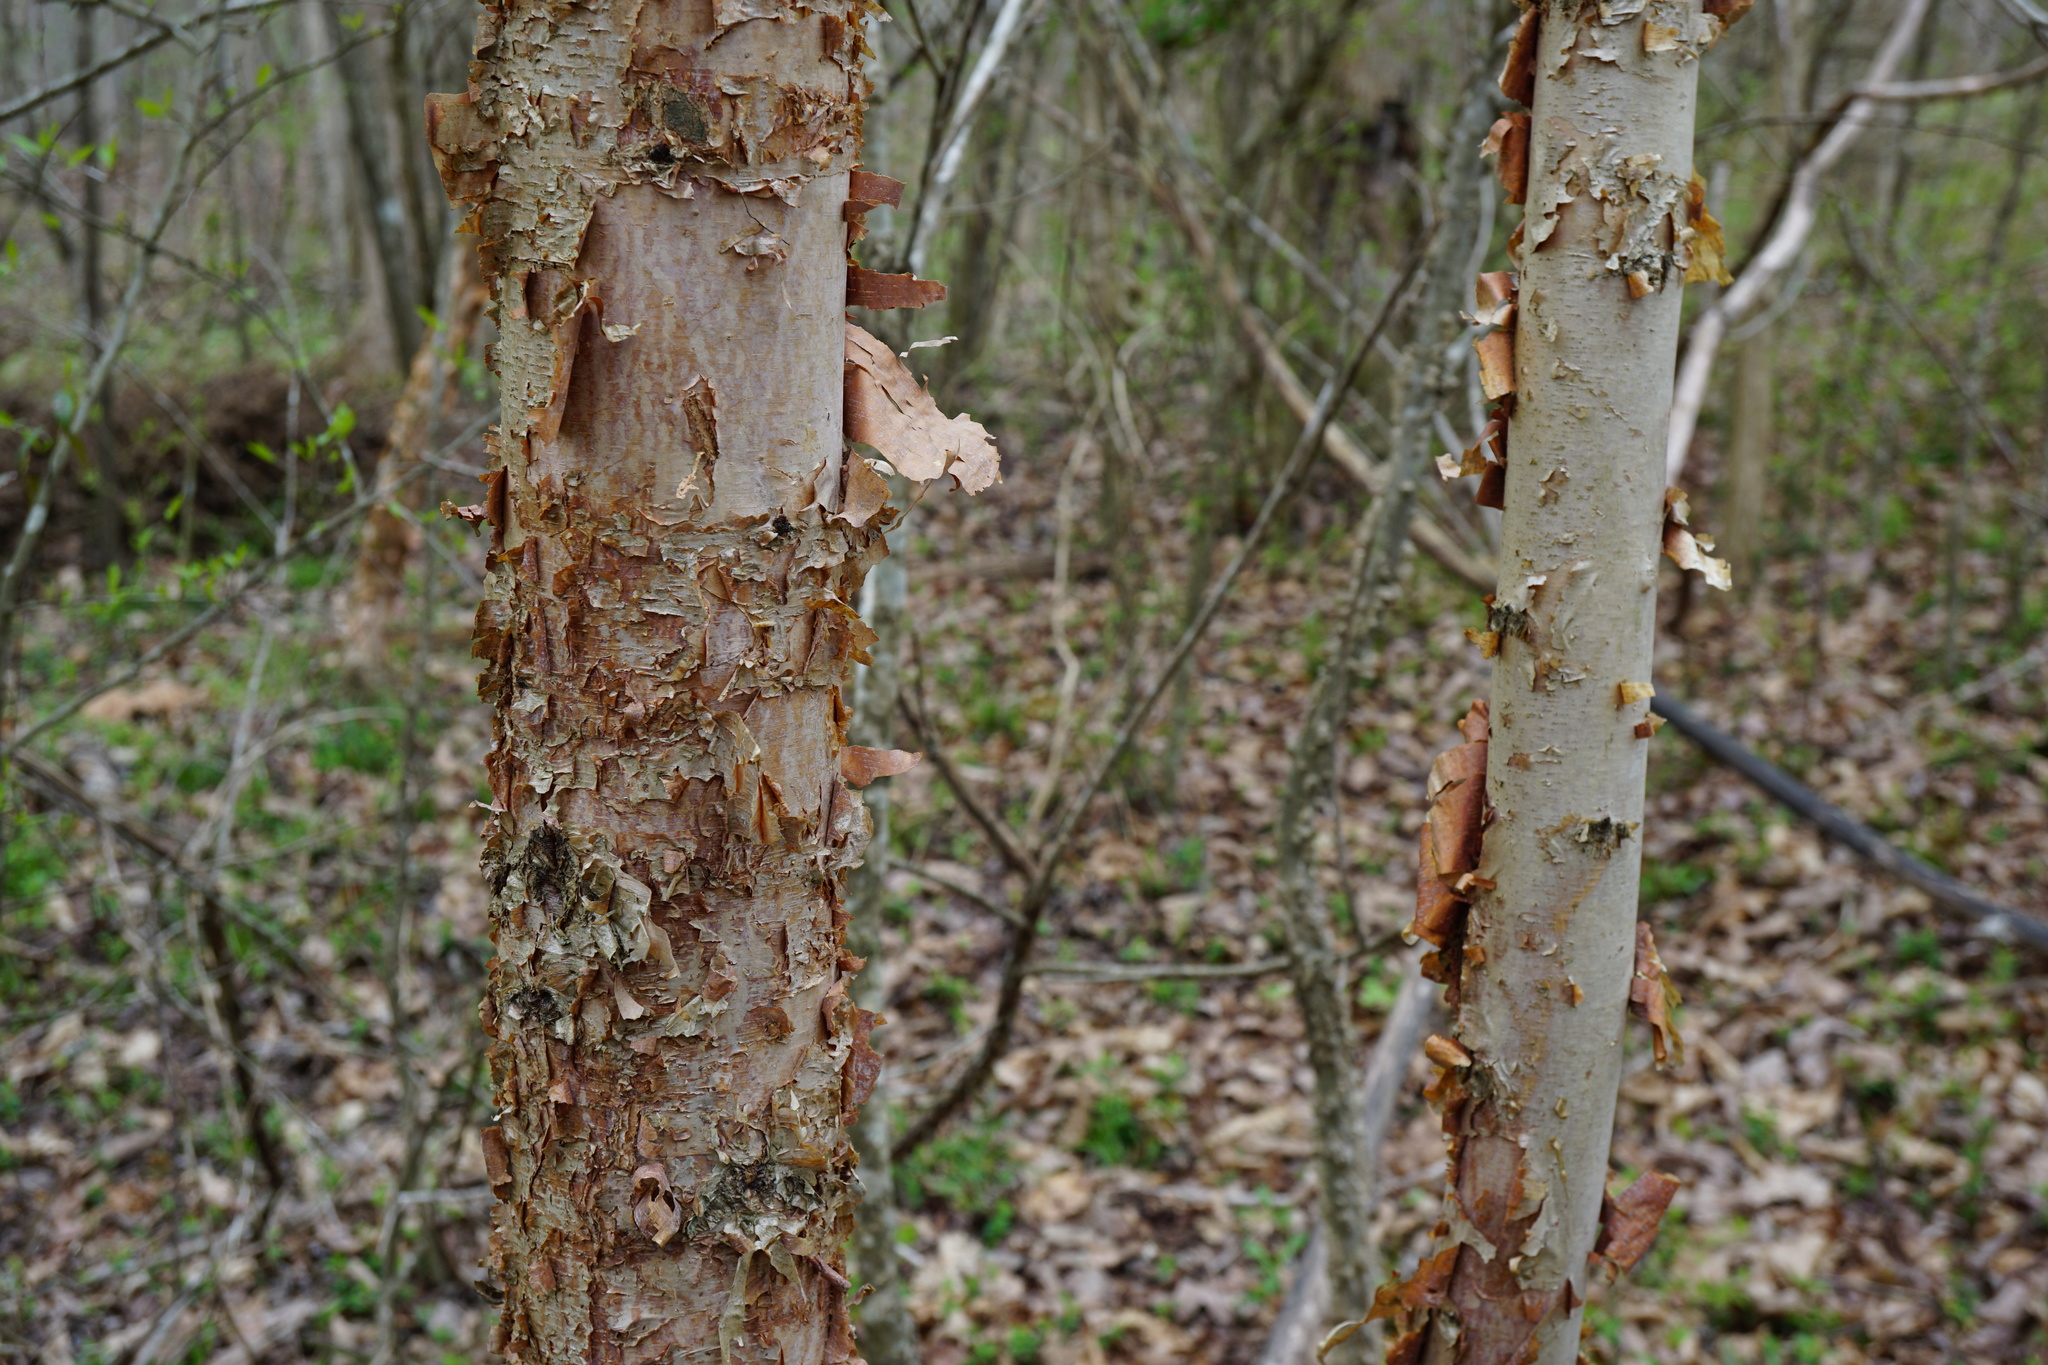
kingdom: Plantae
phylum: Tracheophyta
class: Magnoliopsida
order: Fagales
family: Betulaceae
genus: Betula
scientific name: Betula nigra
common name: Black birch
